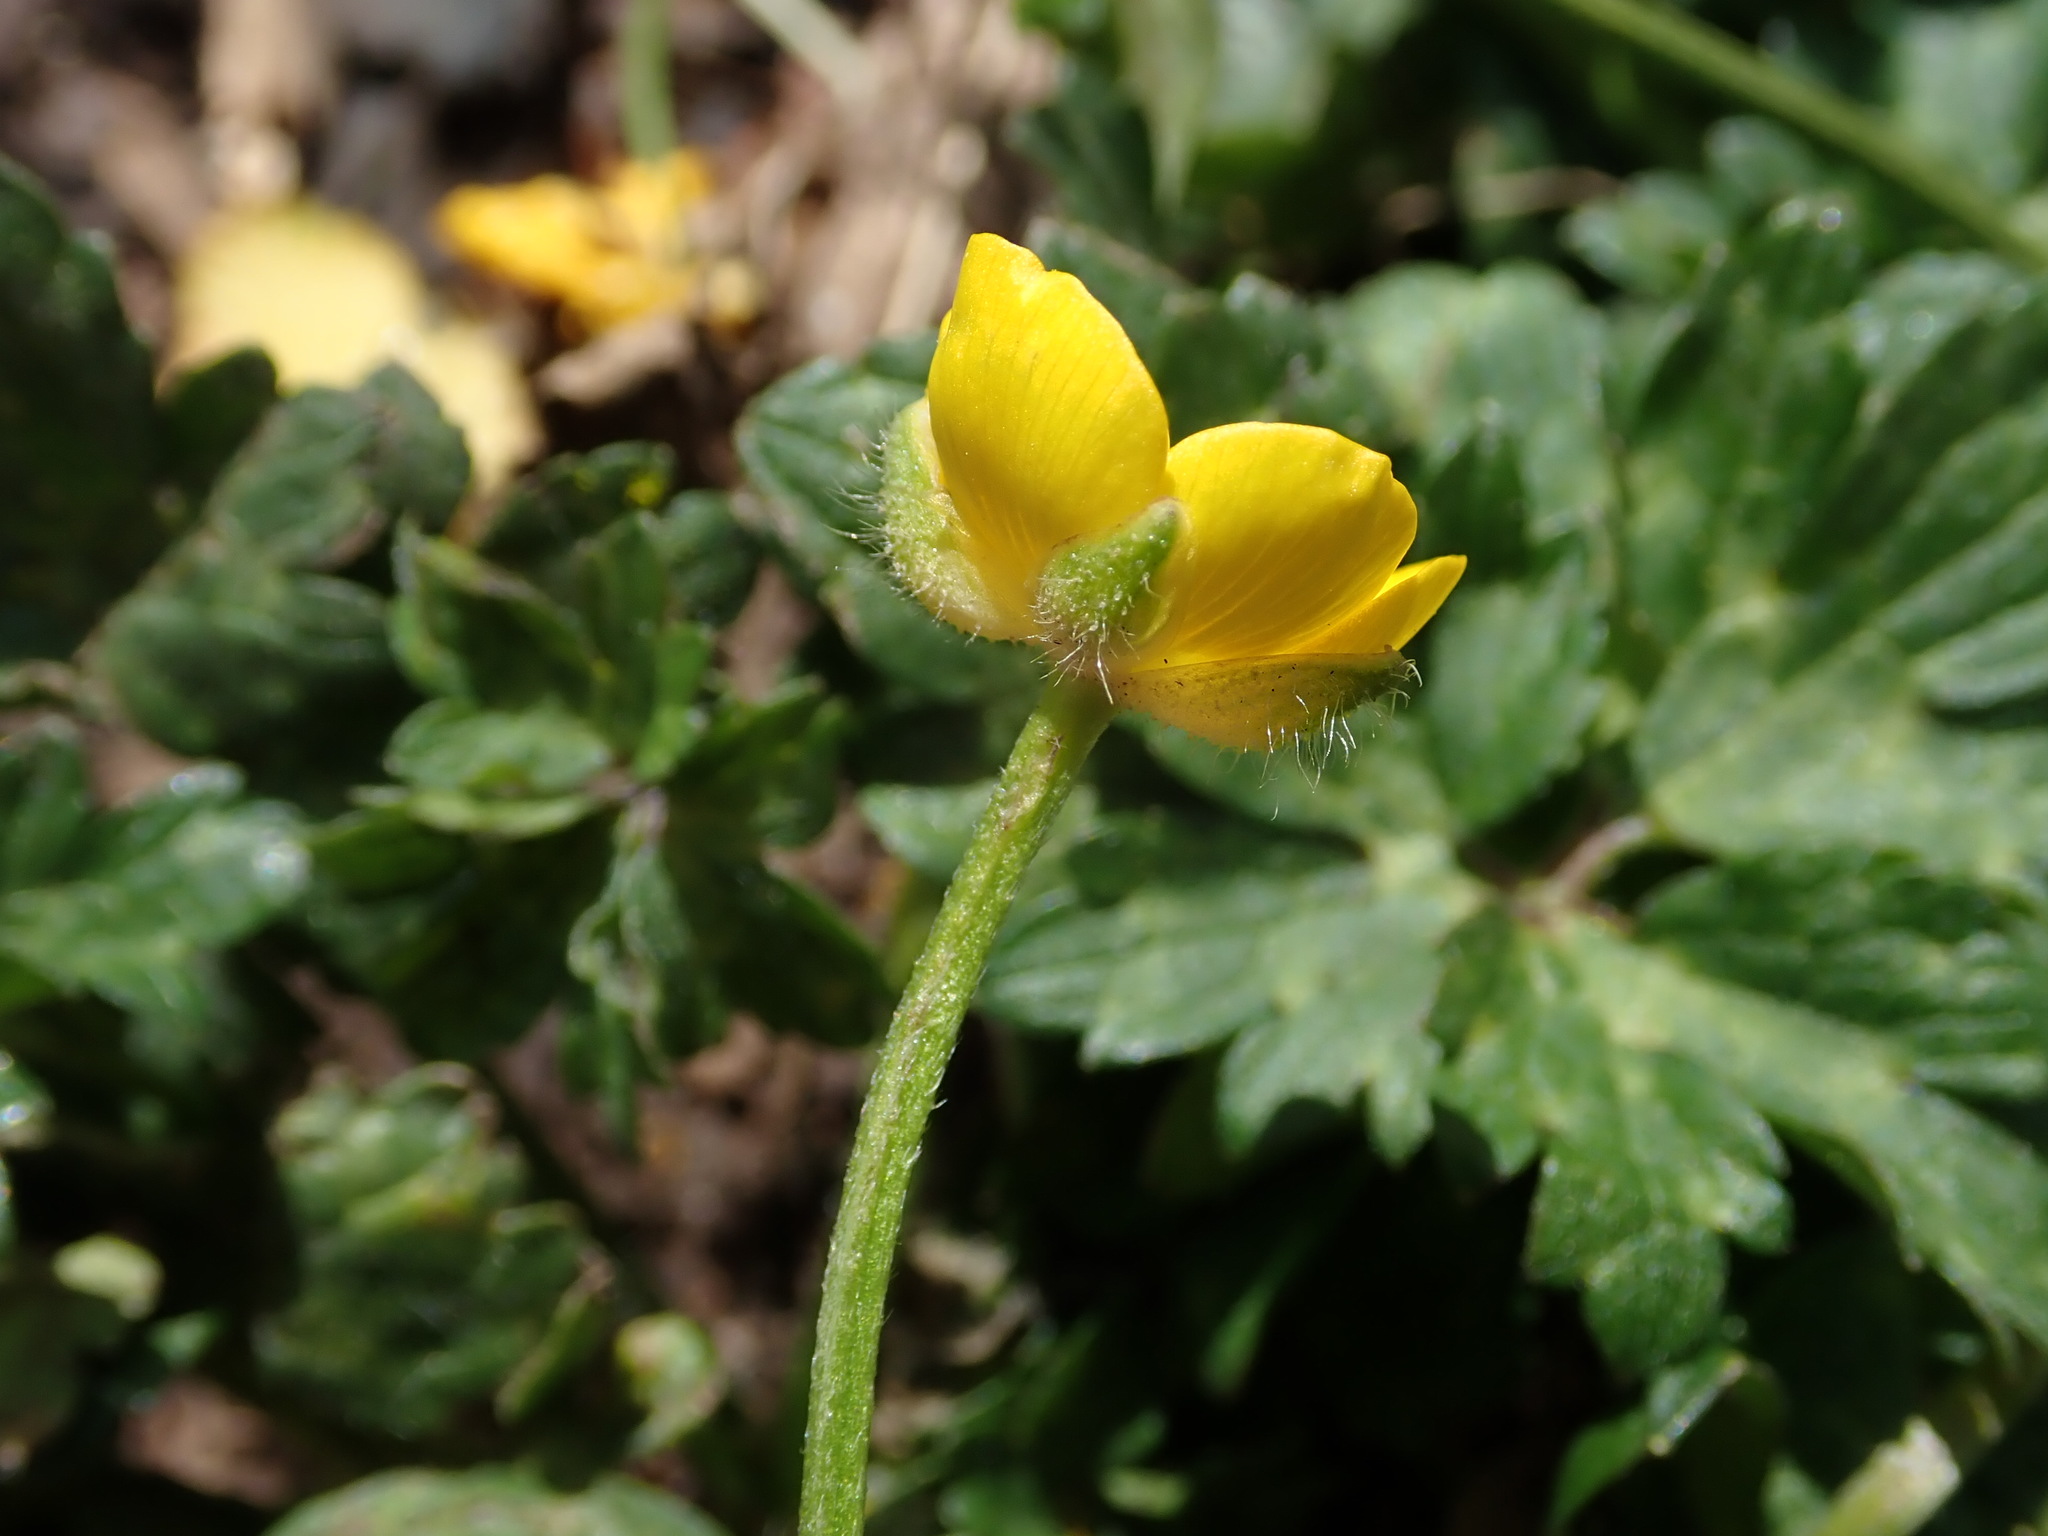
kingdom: Plantae
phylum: Tracheophyta
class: Magnoliopsida
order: Ranunculales
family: Ranunculaceae
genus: Ranunculus
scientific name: Ranunculus repens
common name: Creeping buttercup
